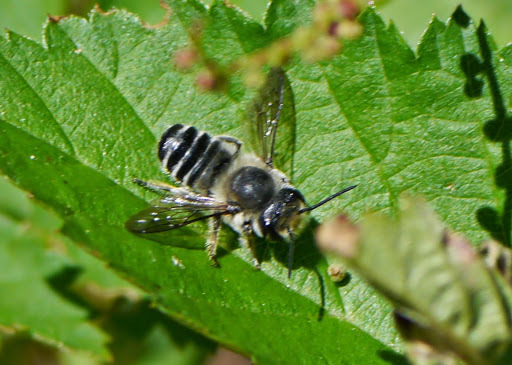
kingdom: Animalia
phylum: Arthropoda
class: Insecta
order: Hymenoptera
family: Megachilidae
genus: Megachile
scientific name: Megachile
